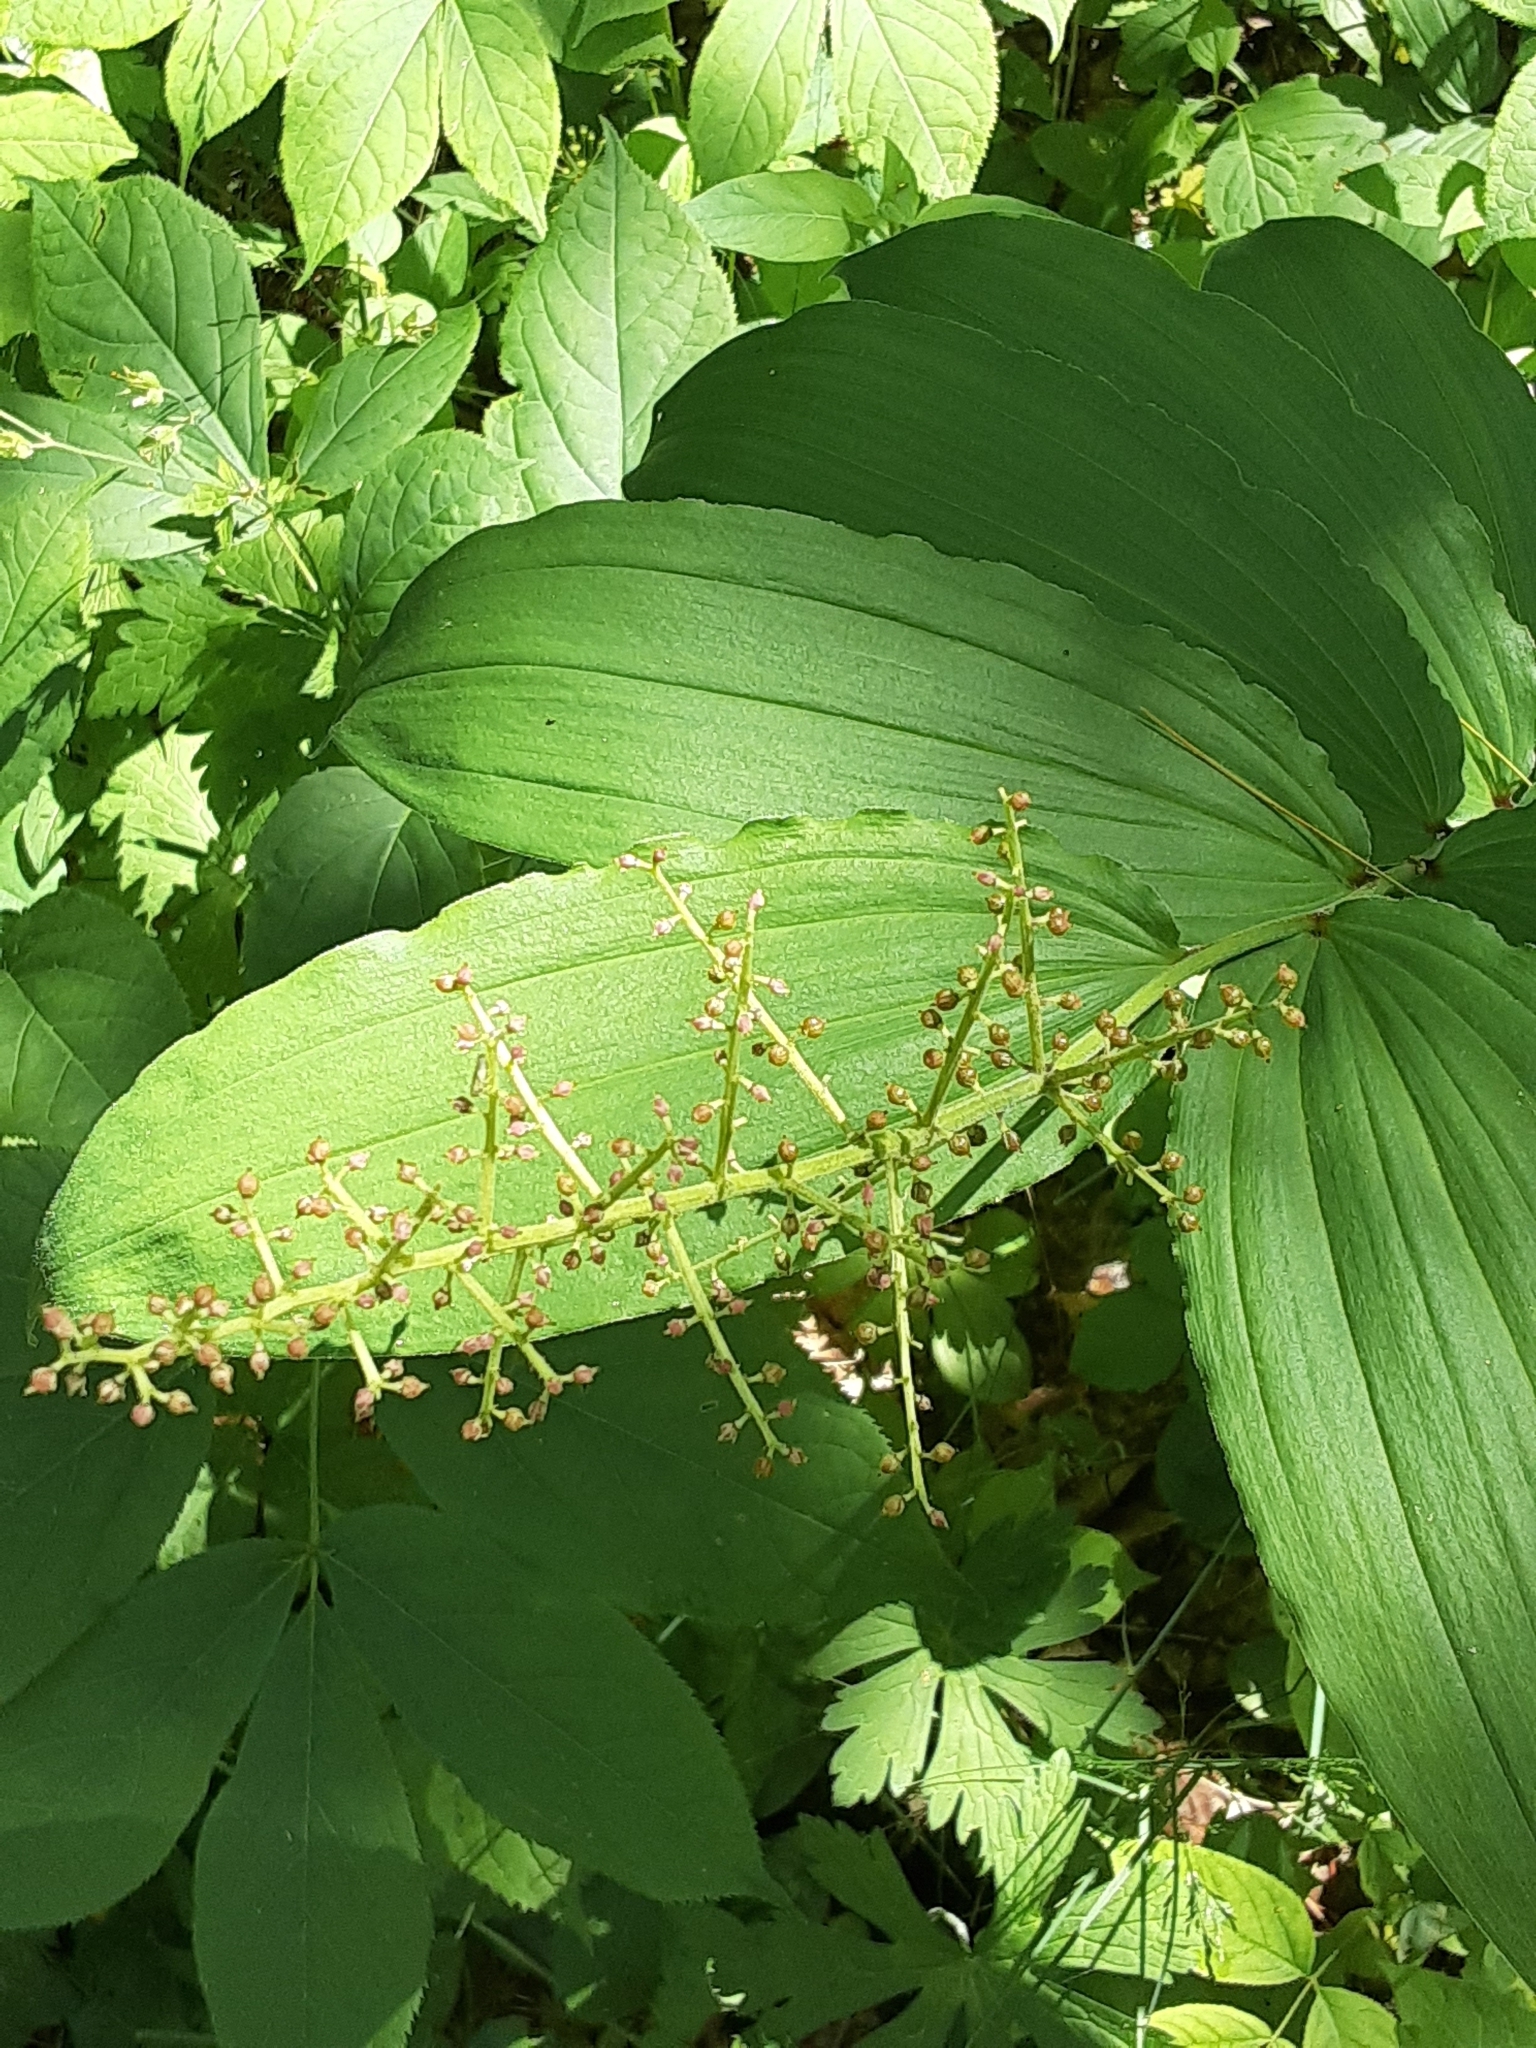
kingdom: Plantae
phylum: Tracheophyta
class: Liliopsida
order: Asparagales
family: Asparagaceae
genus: Maianthemum
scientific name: Maianthemum racemosum
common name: False spikenard
